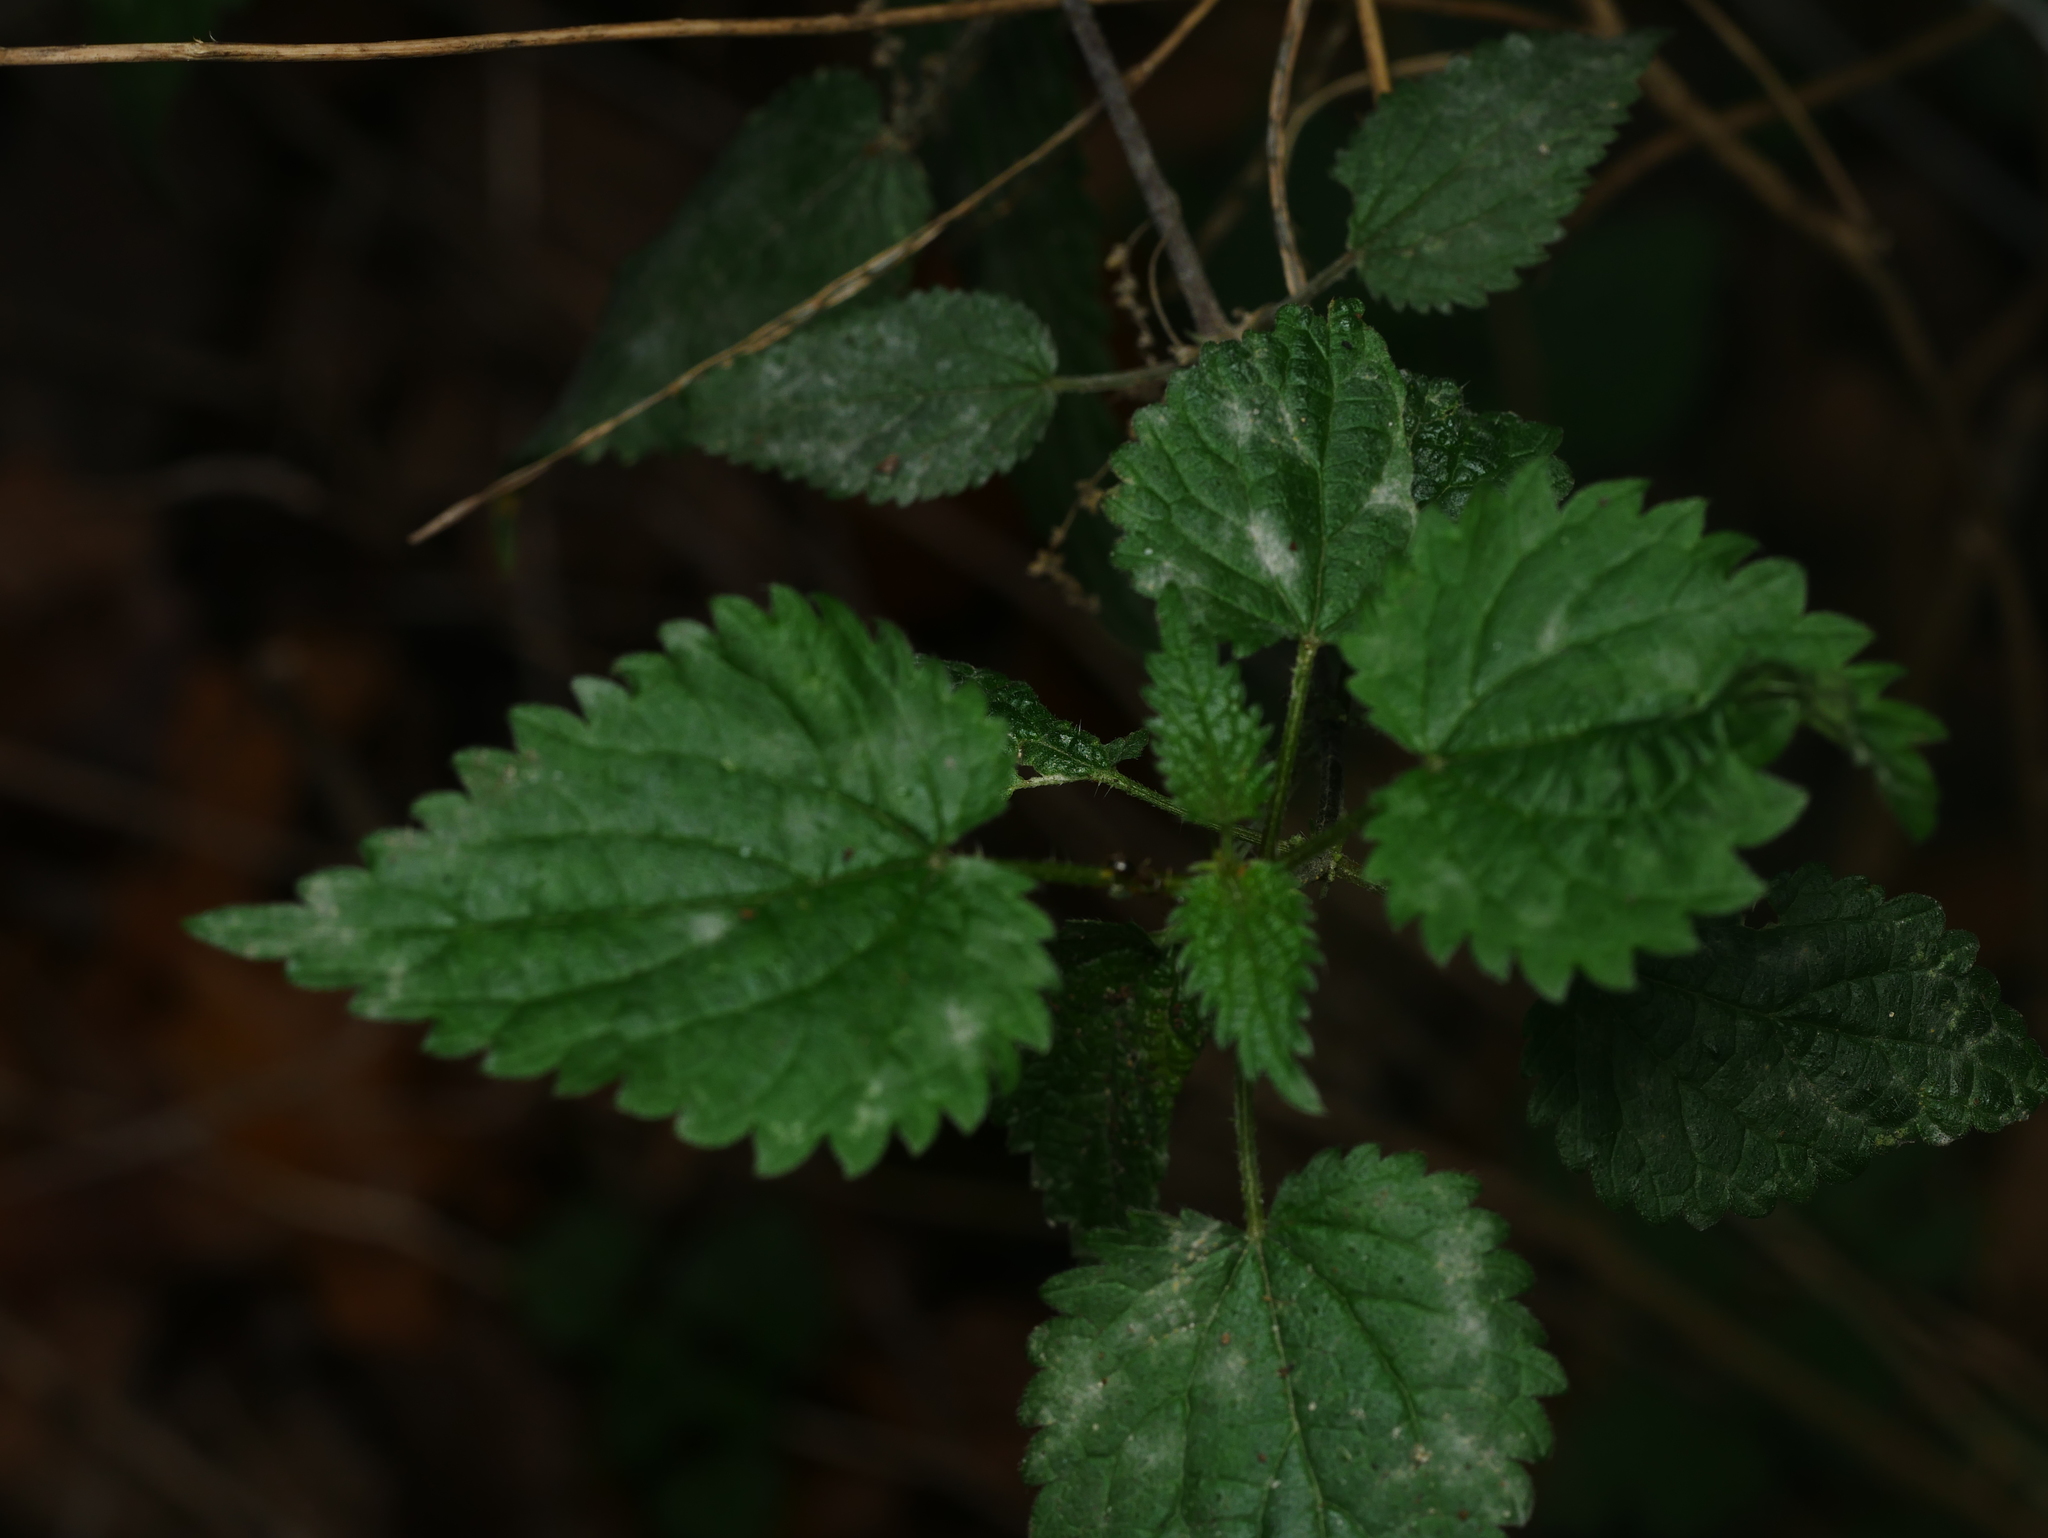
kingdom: Plantae
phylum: Tracheophyta
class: Magnoliopsida
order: Rosales
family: Urticaceae
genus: Urtica
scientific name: Urtica dioica
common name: Common nettle
